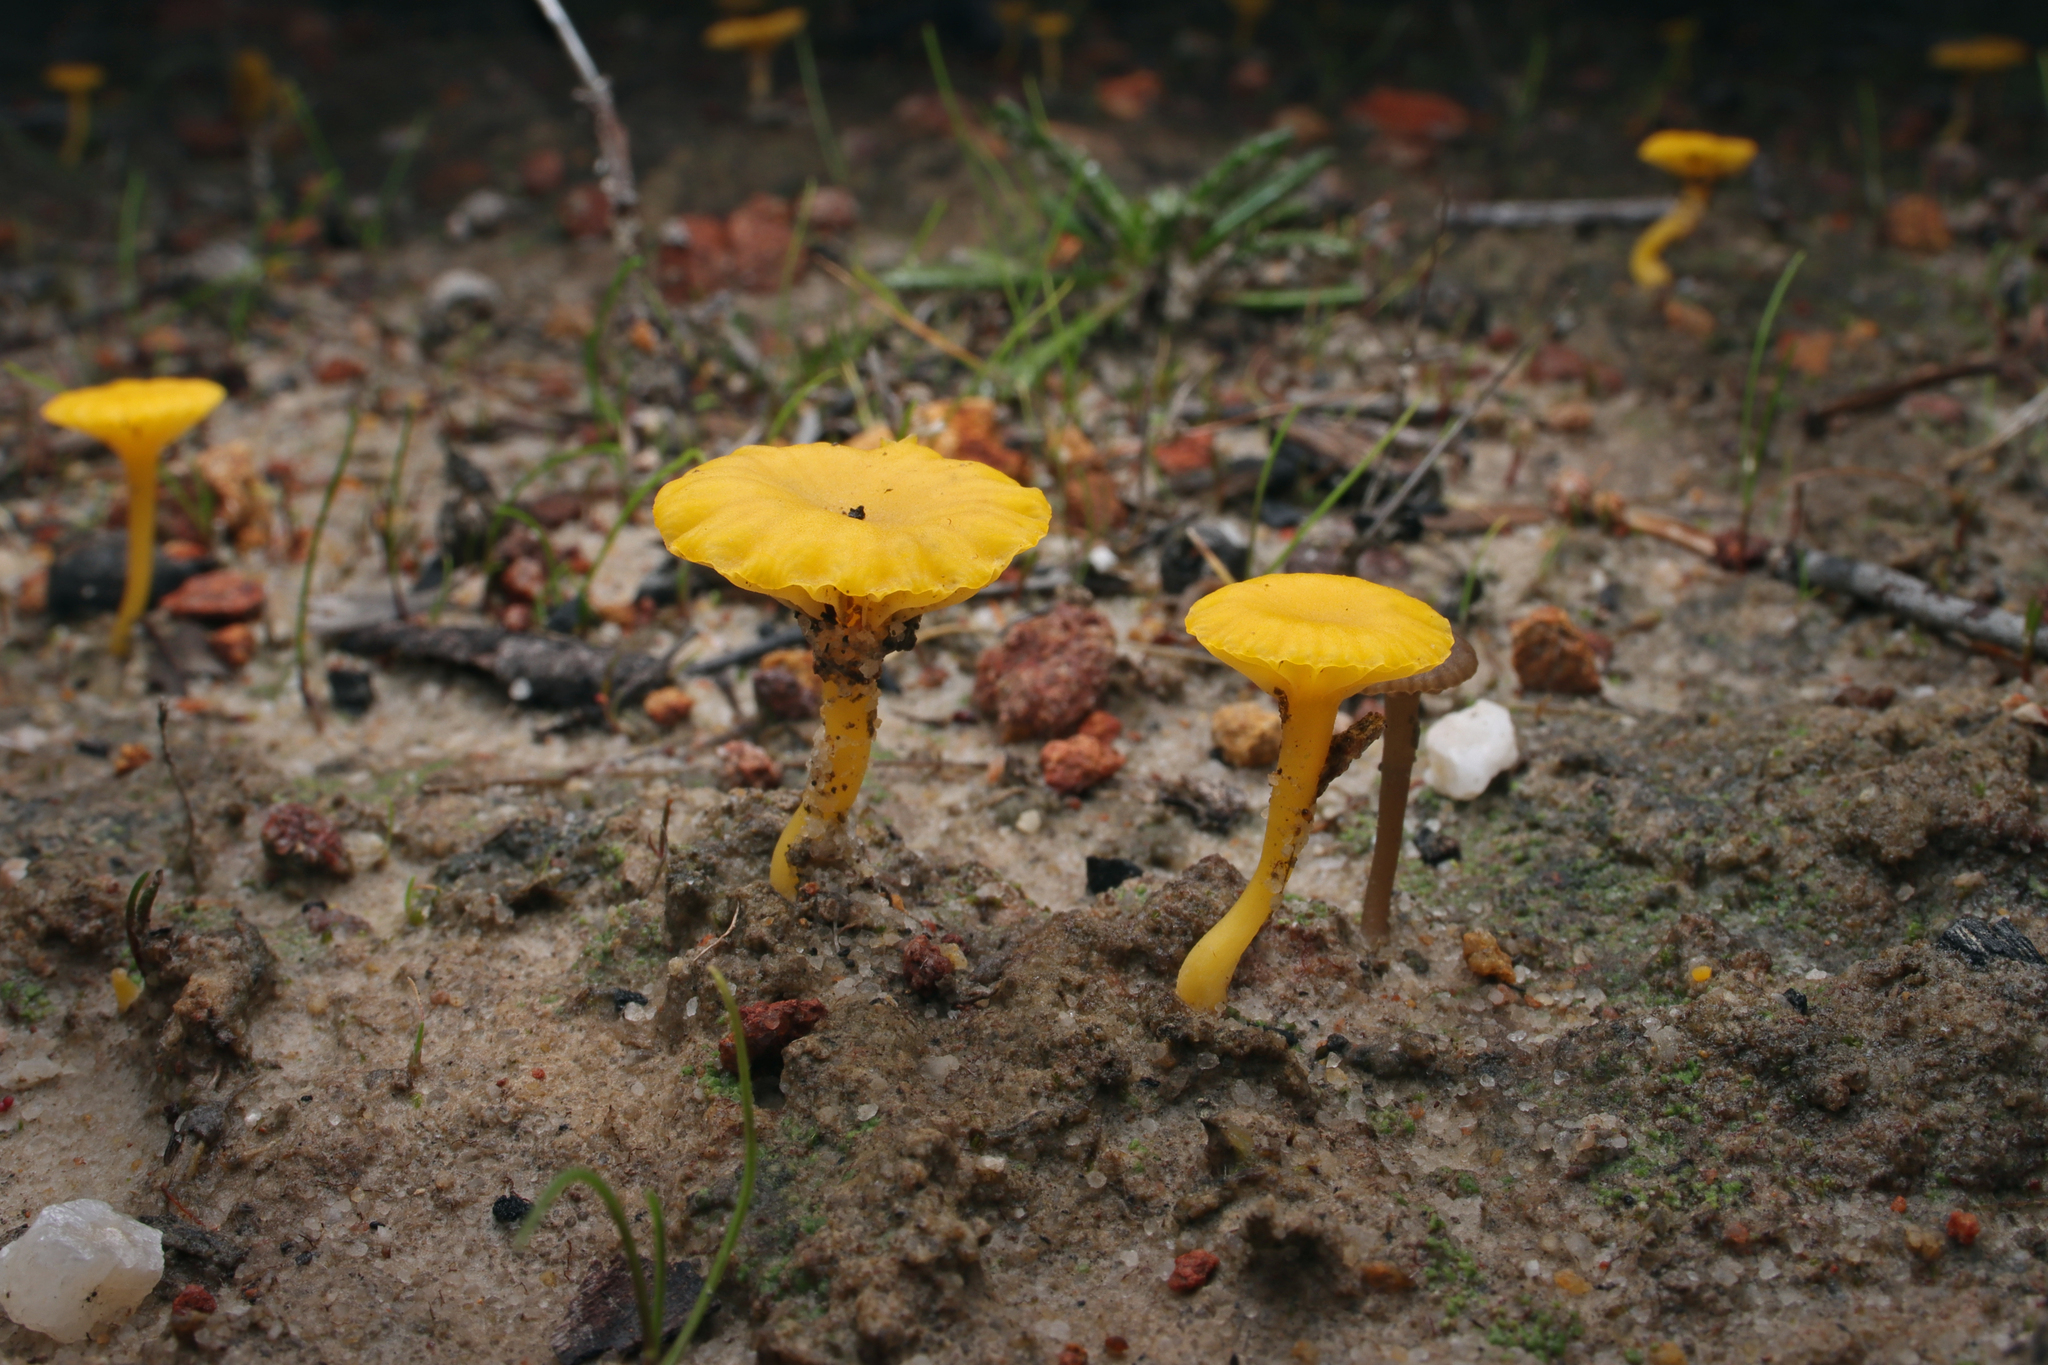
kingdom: Fungi
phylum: Basidiomycota
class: Agaricomycetes
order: Agaricales
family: Hygrophoraceae
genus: Lichenomphalia
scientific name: Lichenomphalia chromacea
